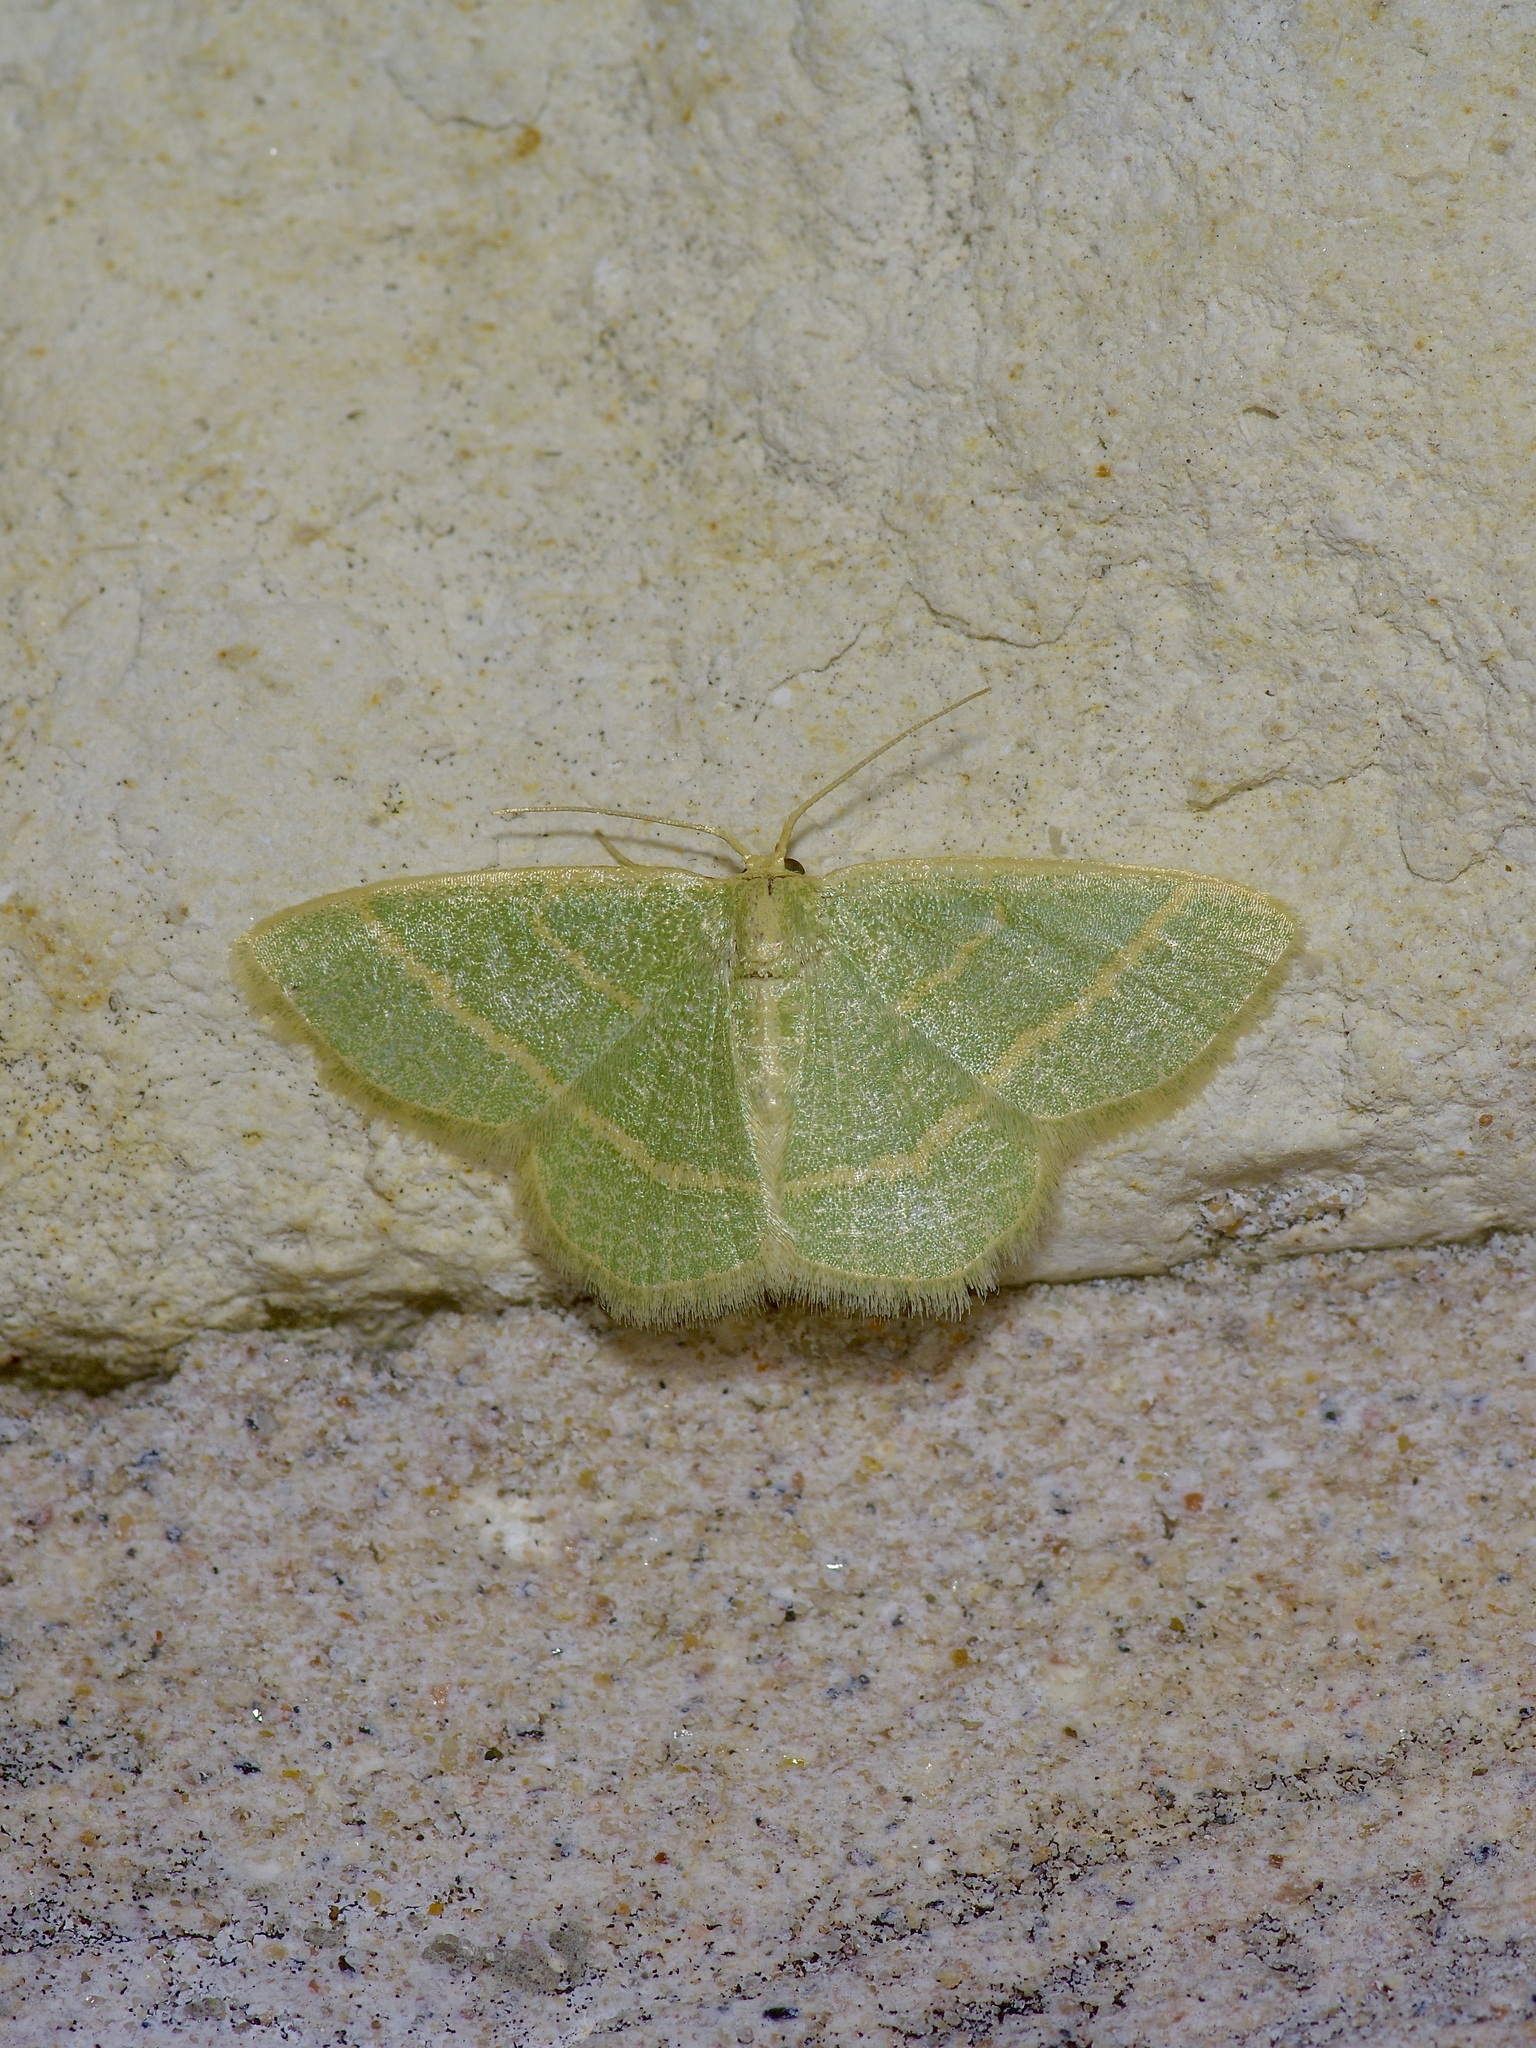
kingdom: Animalia
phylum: Arthropoda
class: Insecta
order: Lepidoptera
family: Geometridae
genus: Chlorochlamys
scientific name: Chlorochlamys chloroleucaria
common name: Blackberry looper
